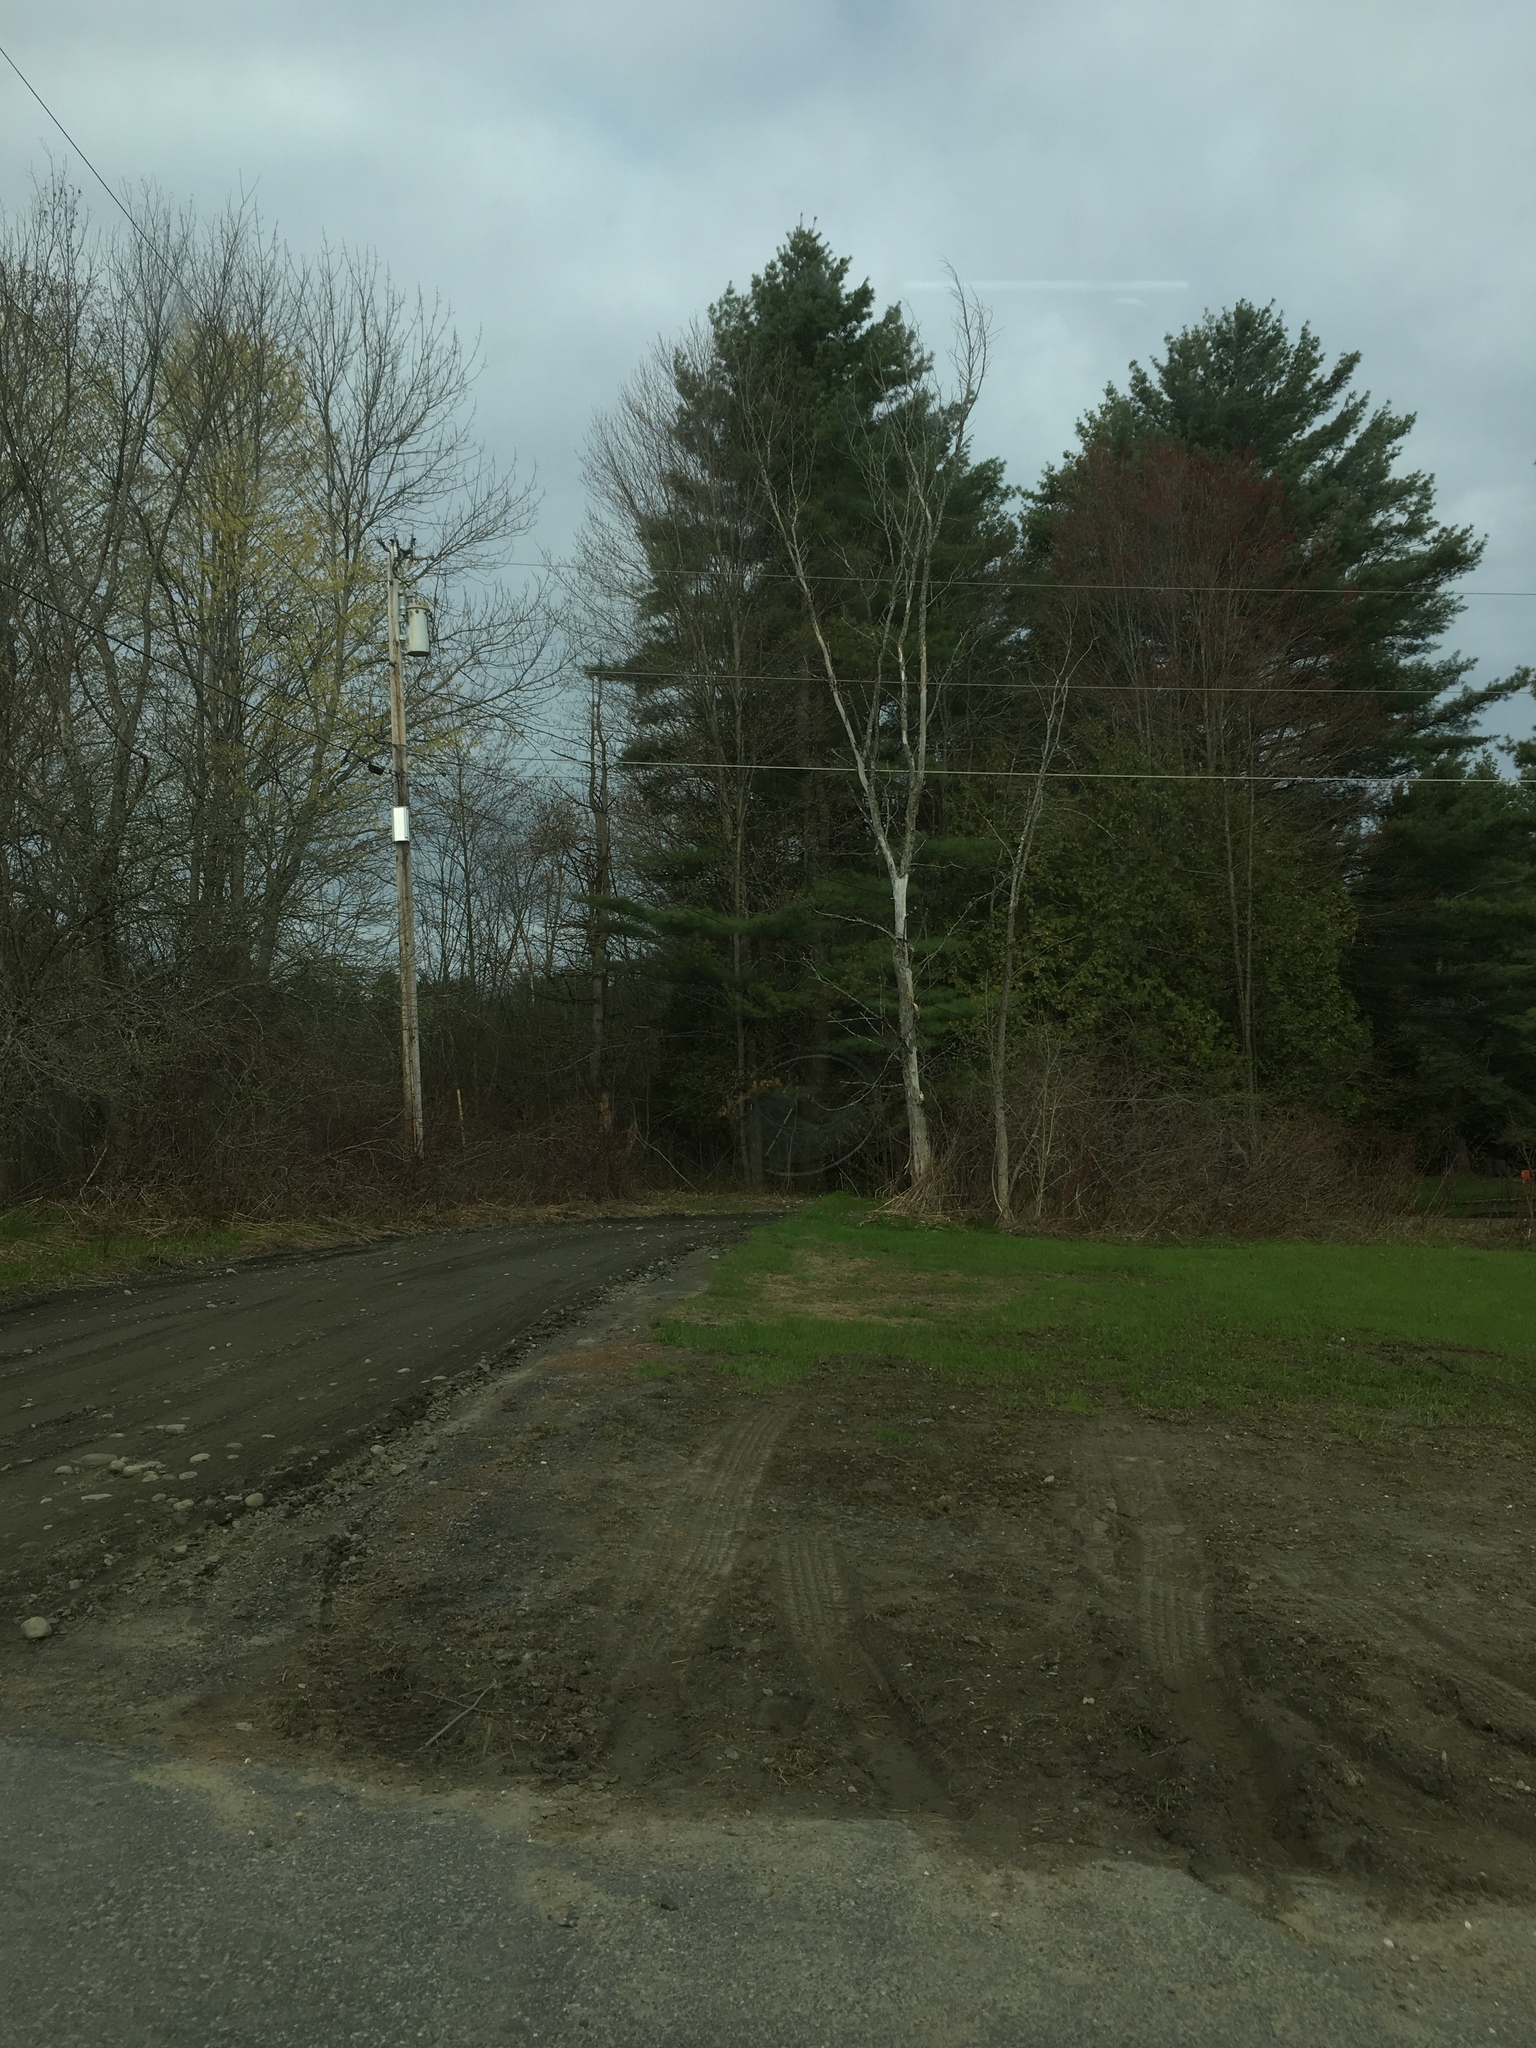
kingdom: Plantae
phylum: Tracheophyta
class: Pinopsida
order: Pinales
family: Pinaceae
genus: Pinus
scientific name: Pinus strobus
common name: Weymouth pine
